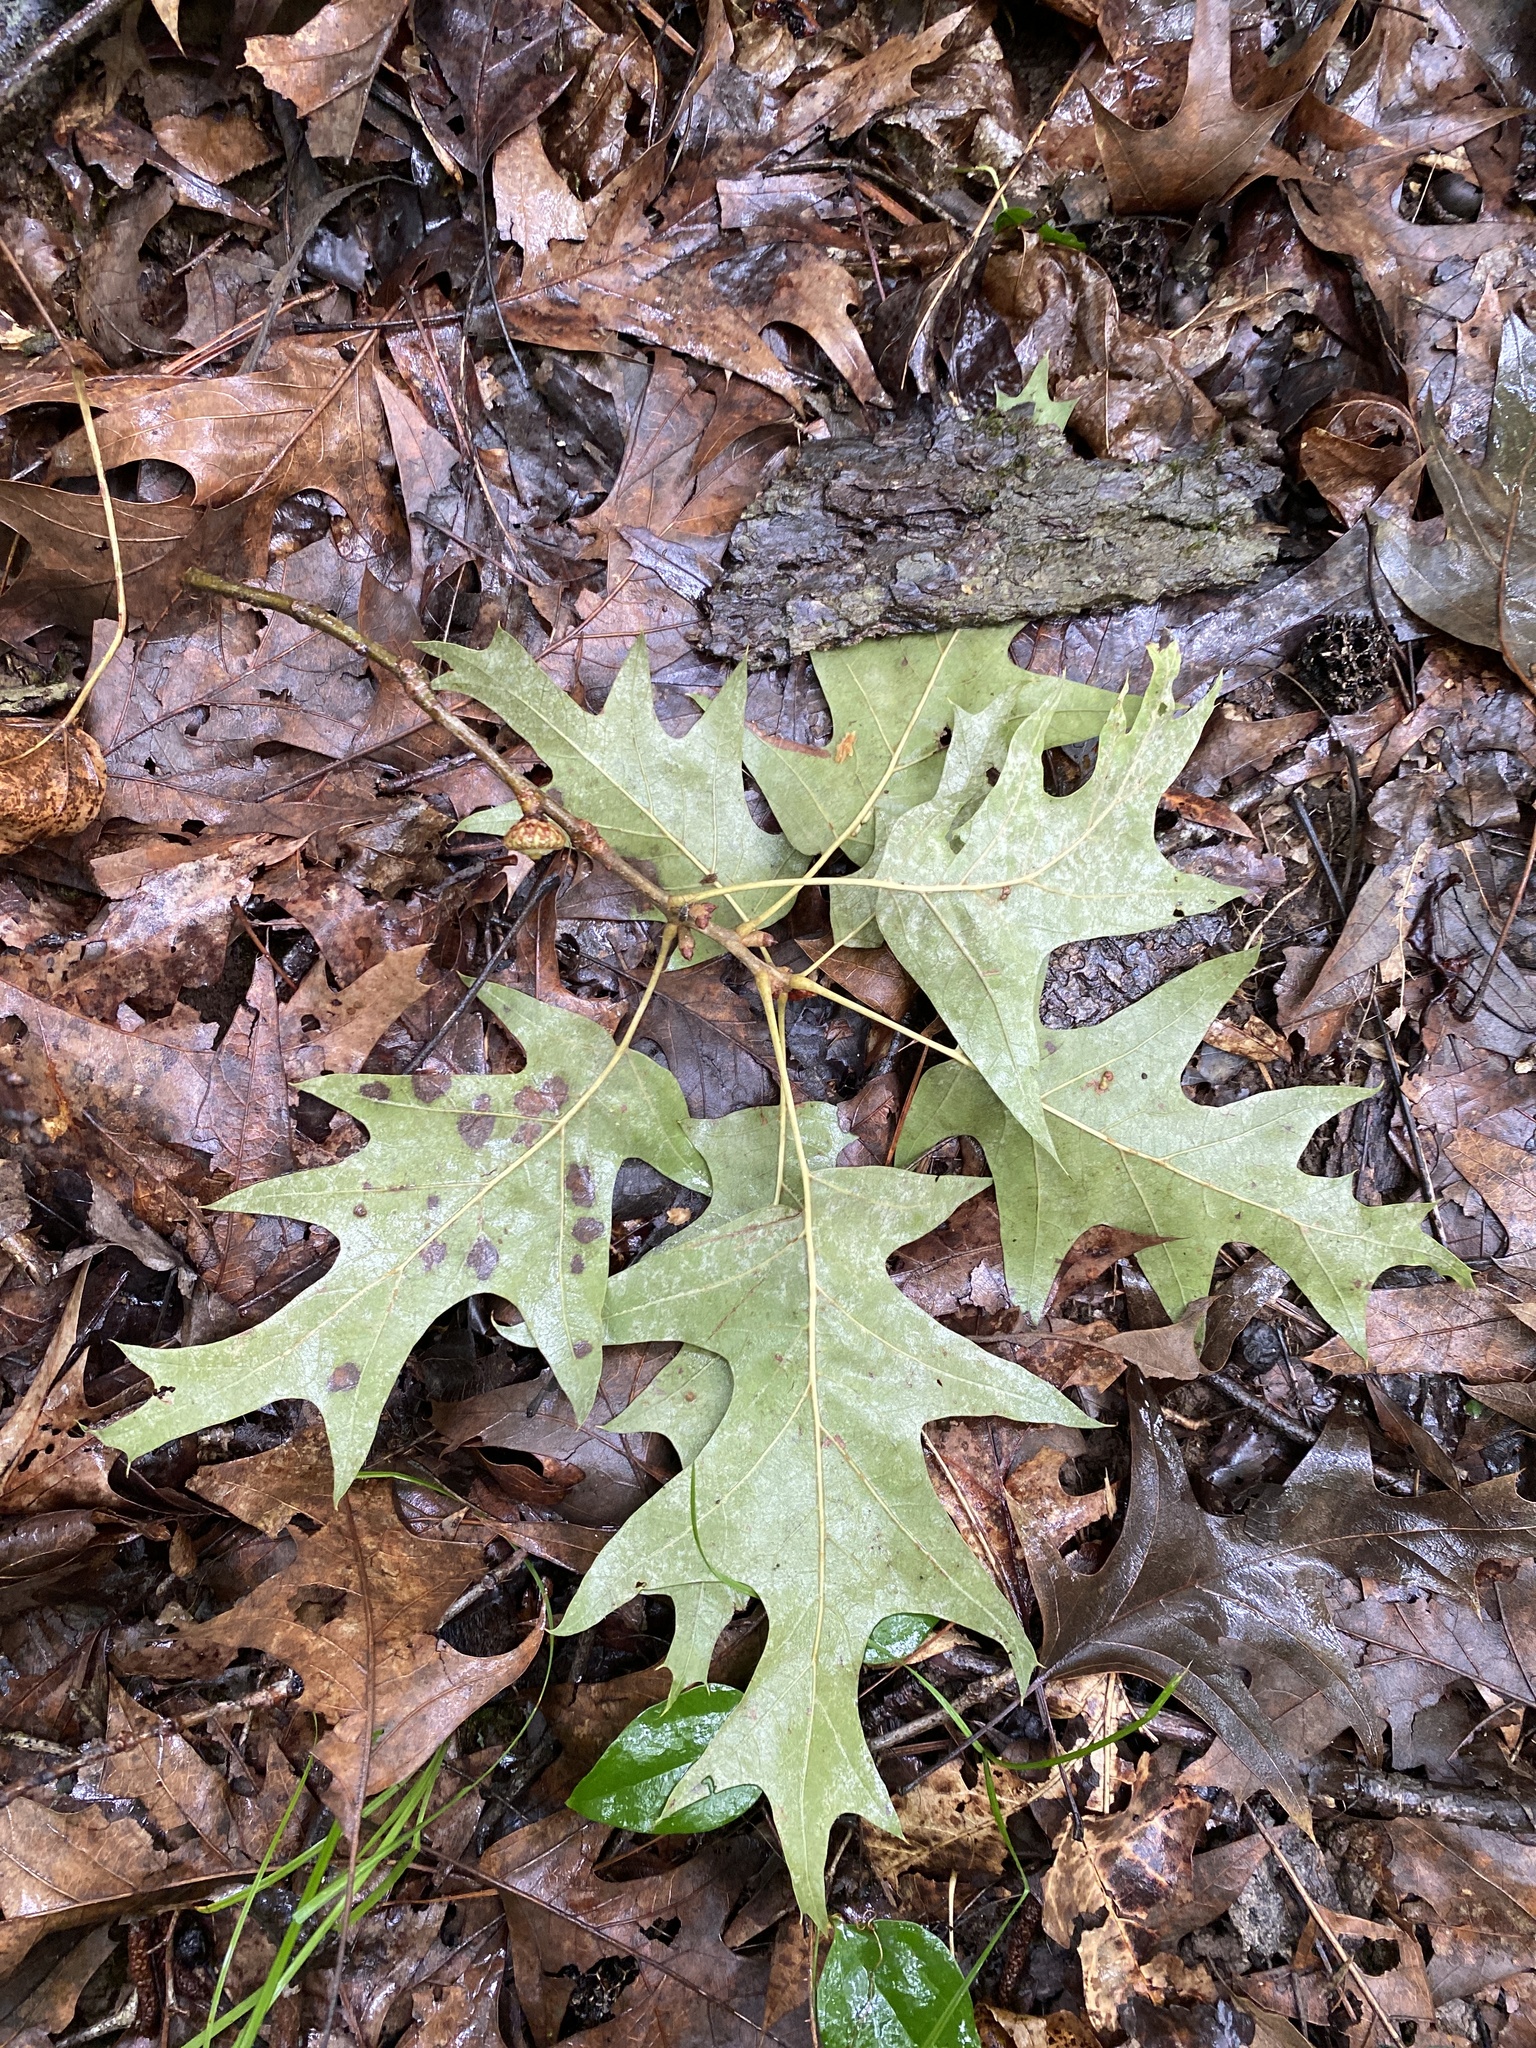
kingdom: Plantae
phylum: Tracheophyta
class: Magnoliopsida
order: Fagales
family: Fagaceae
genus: Quercus
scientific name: Quercus pagoda
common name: Cherrybark oak
